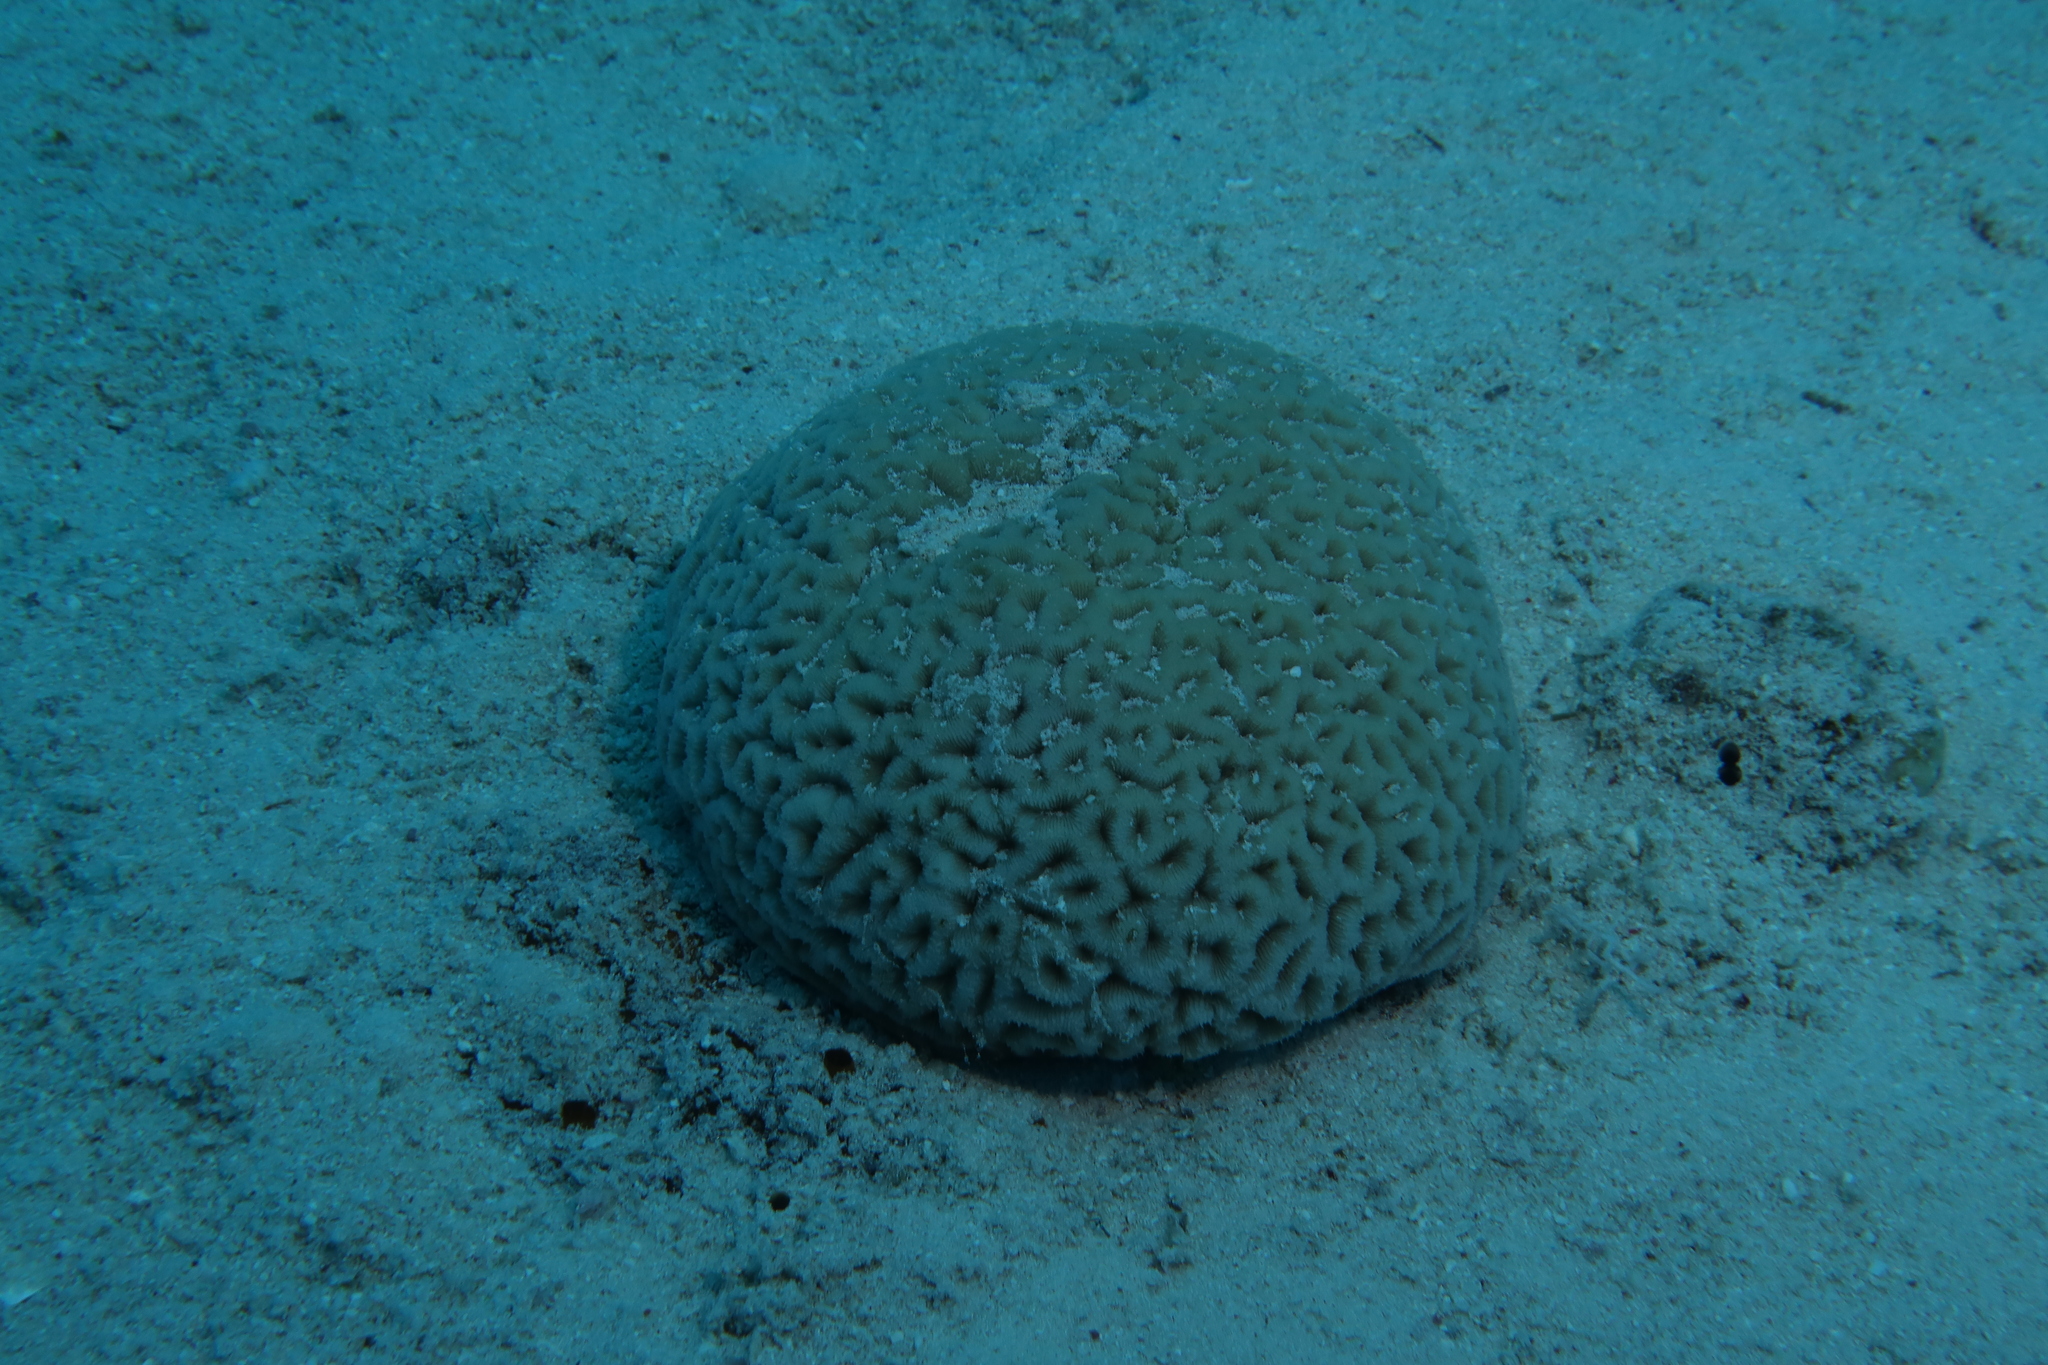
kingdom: Animalia
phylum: Cnidaria
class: Anthozoa
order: Scleractinia
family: Coscinaraeidae
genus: Coscinaraea
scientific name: Coscinaraea monile
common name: Wrinkle coral
